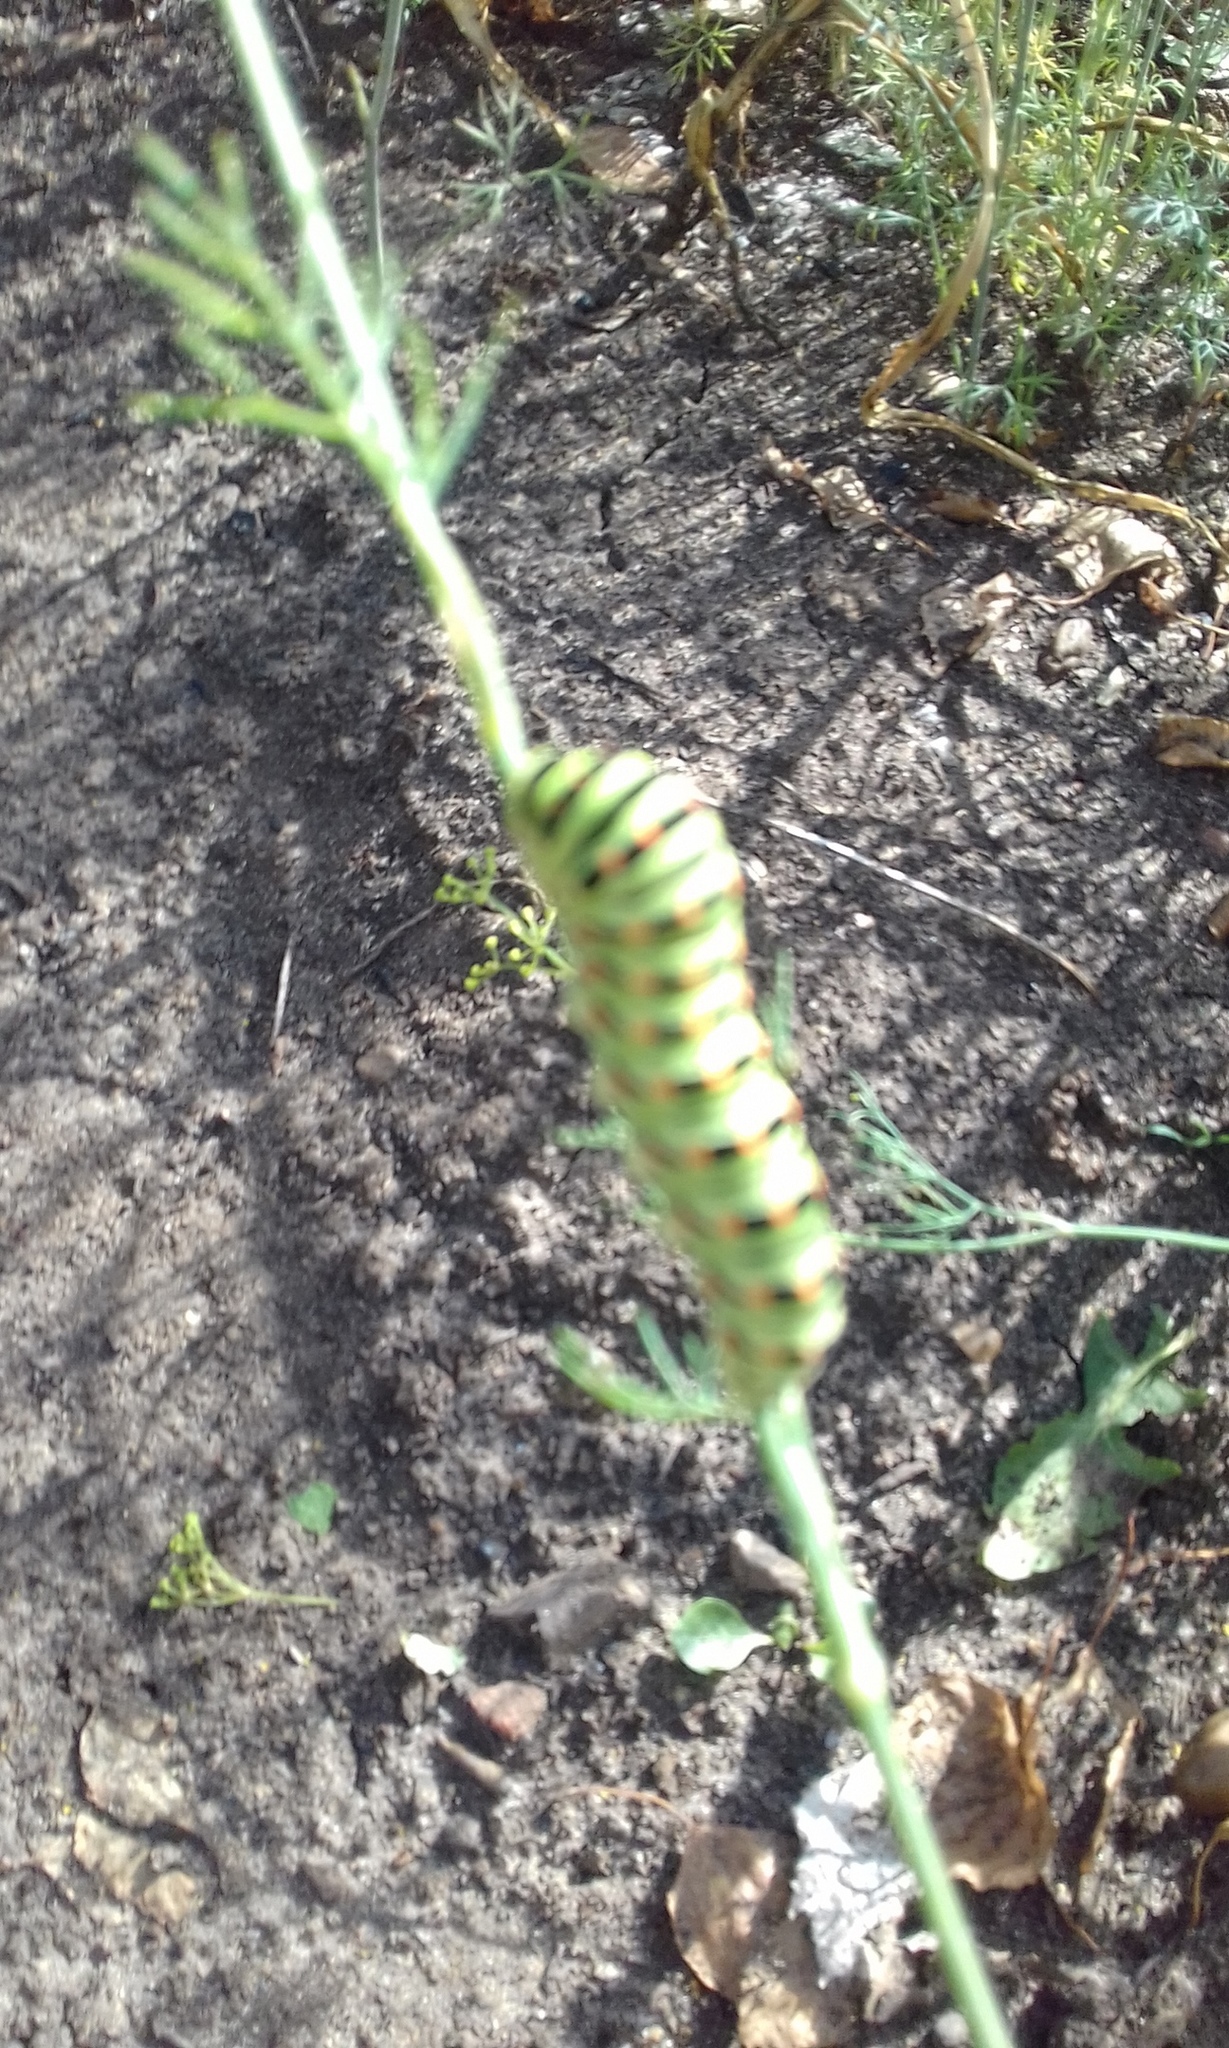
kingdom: Animalia
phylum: Arthropoda
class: Insecta
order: Lepidoptera
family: Papilionidae
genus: Papilio
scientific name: Papilio machaon
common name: Swallowtail
